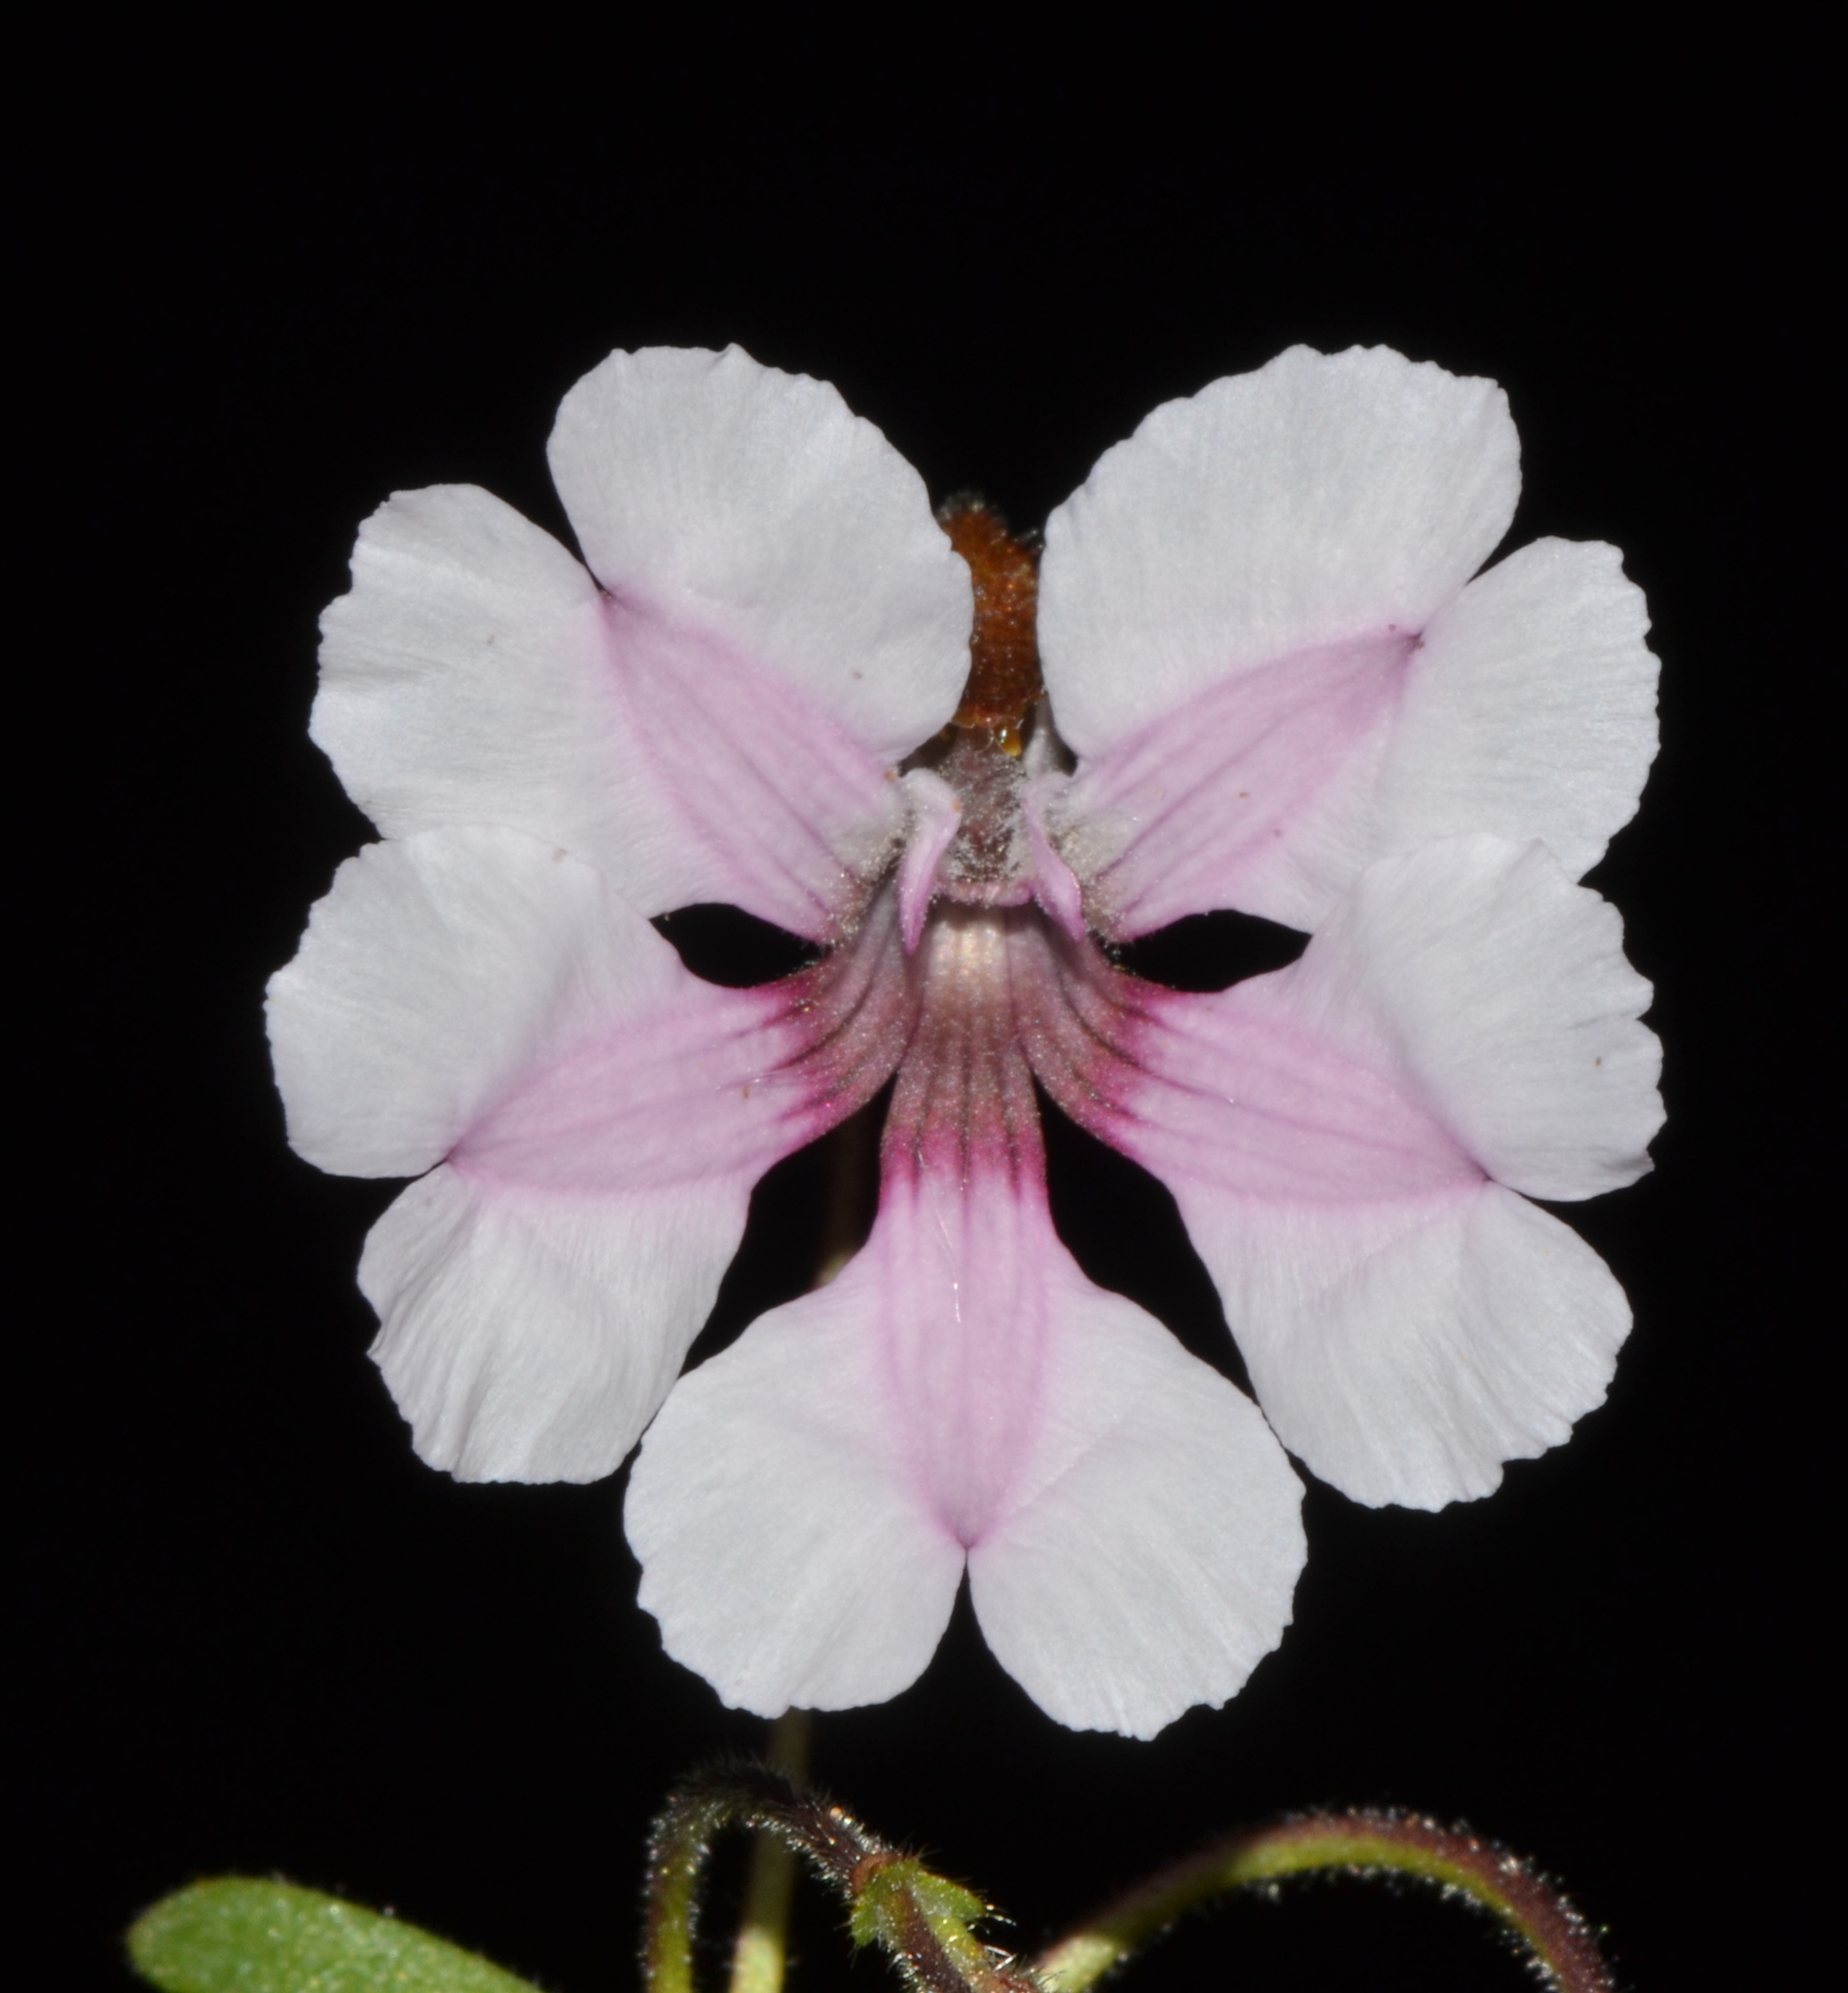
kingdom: Plantae
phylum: Tracheophyta
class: Magnoliopsida
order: Asterales
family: Goodeniaceae
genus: Goodenia
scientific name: Goodenia rosea
